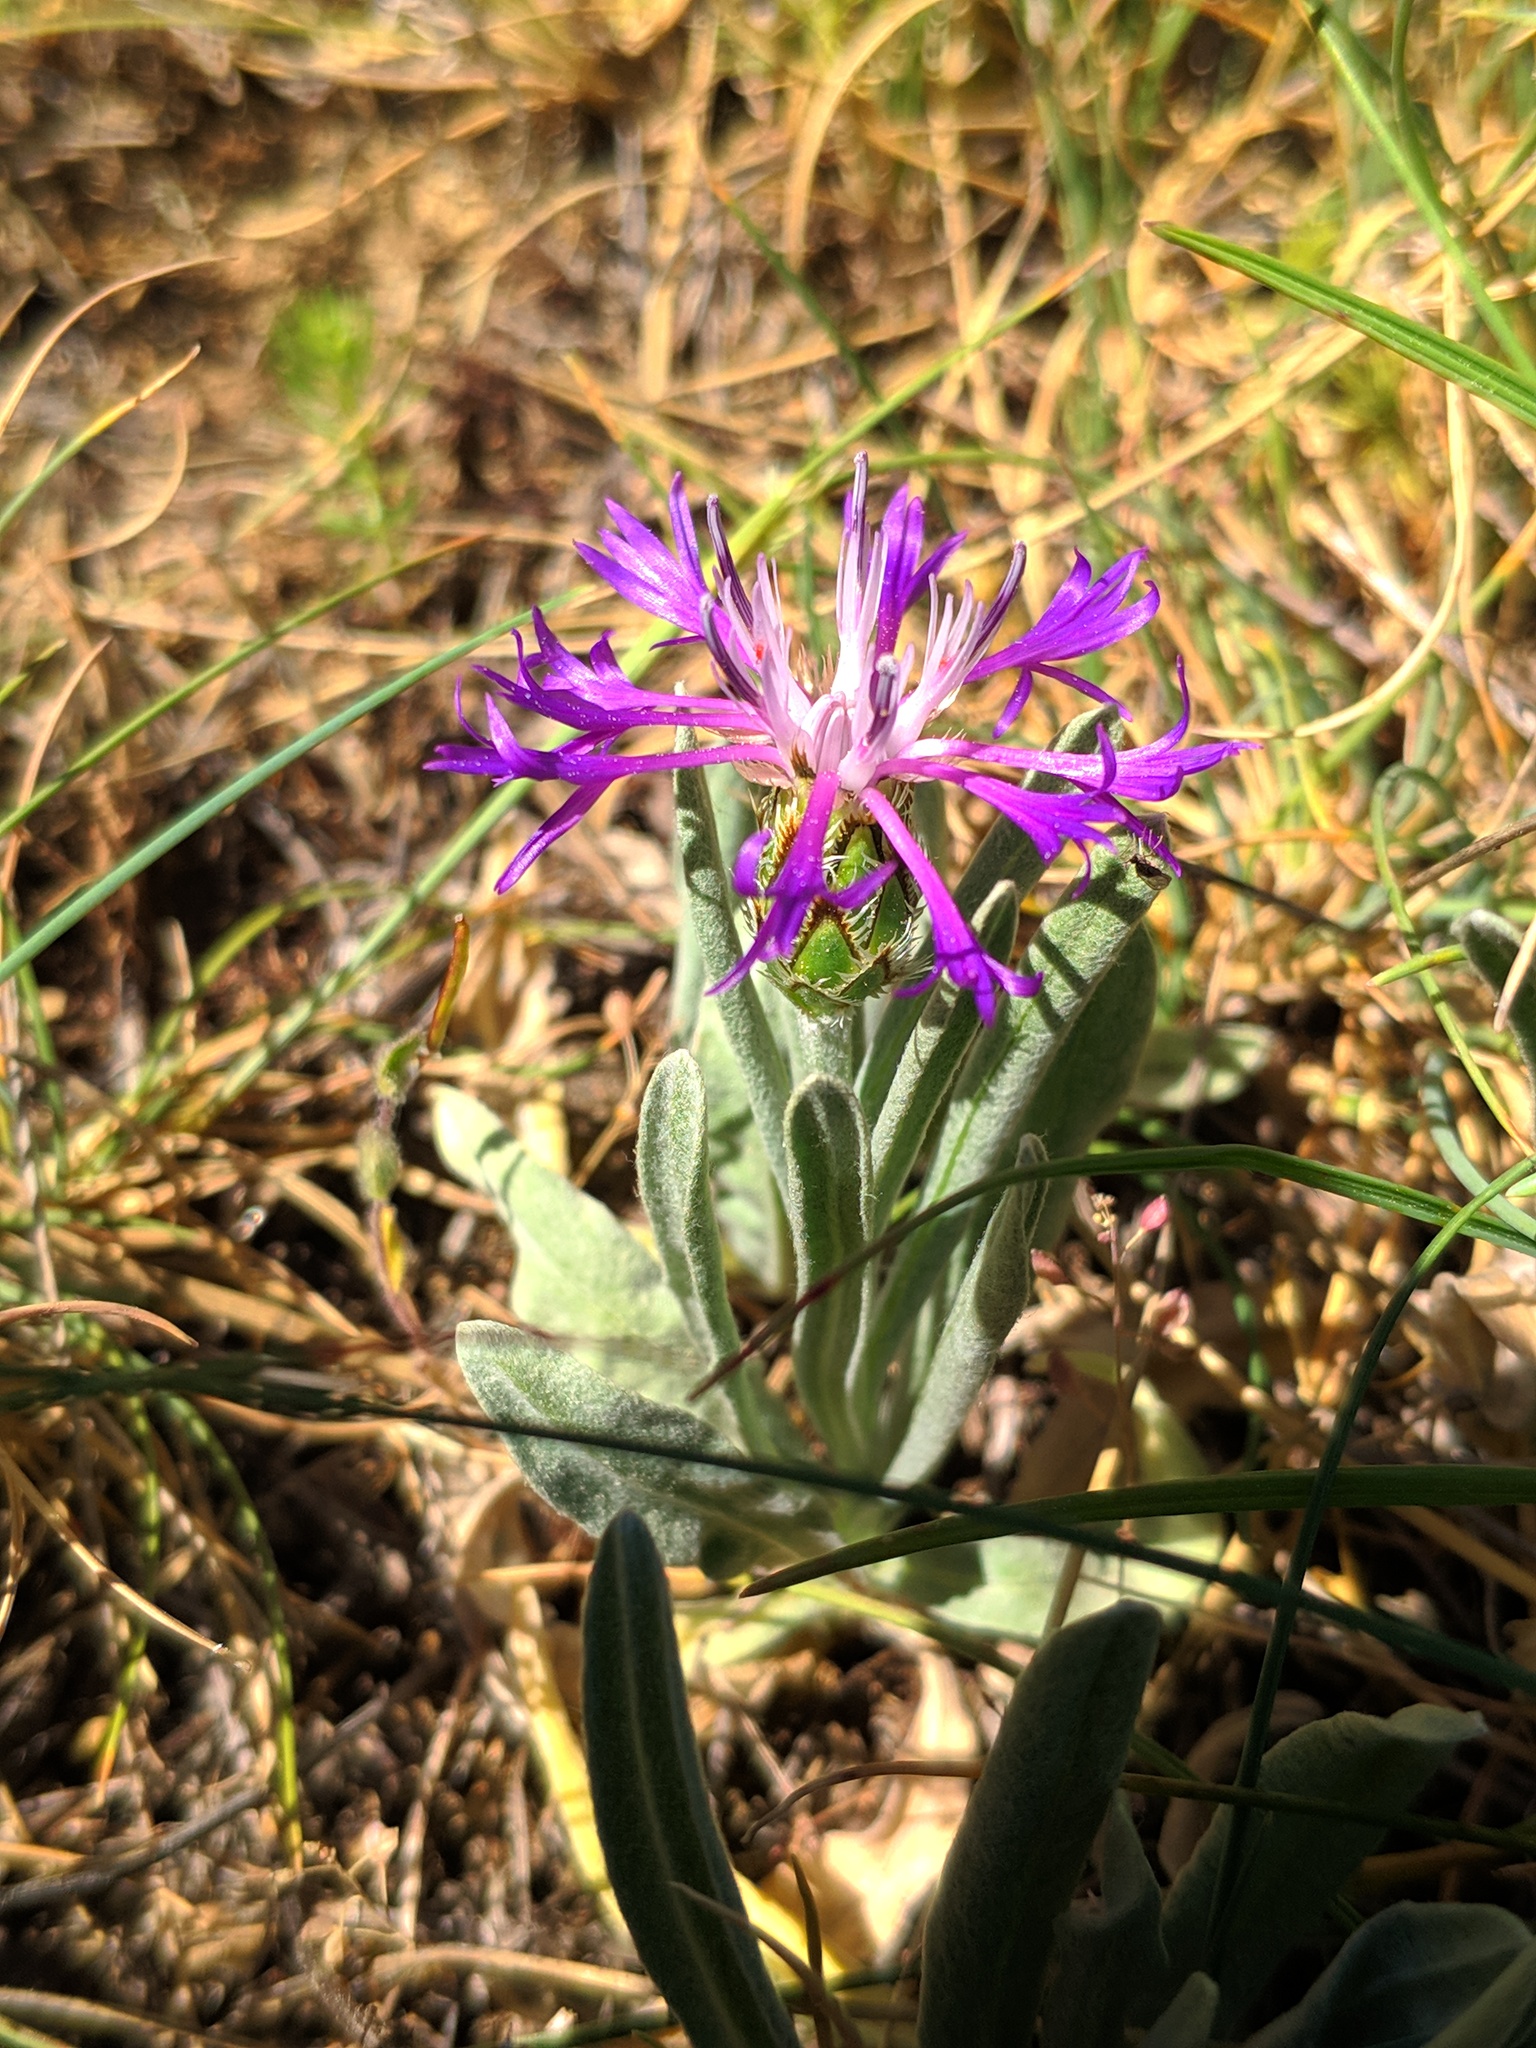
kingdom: Plantae
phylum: Tracheophyta
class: Magnoliopsida
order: Asterales
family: Asteraceae
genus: Centaurea
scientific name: Centaurea graminifolia
